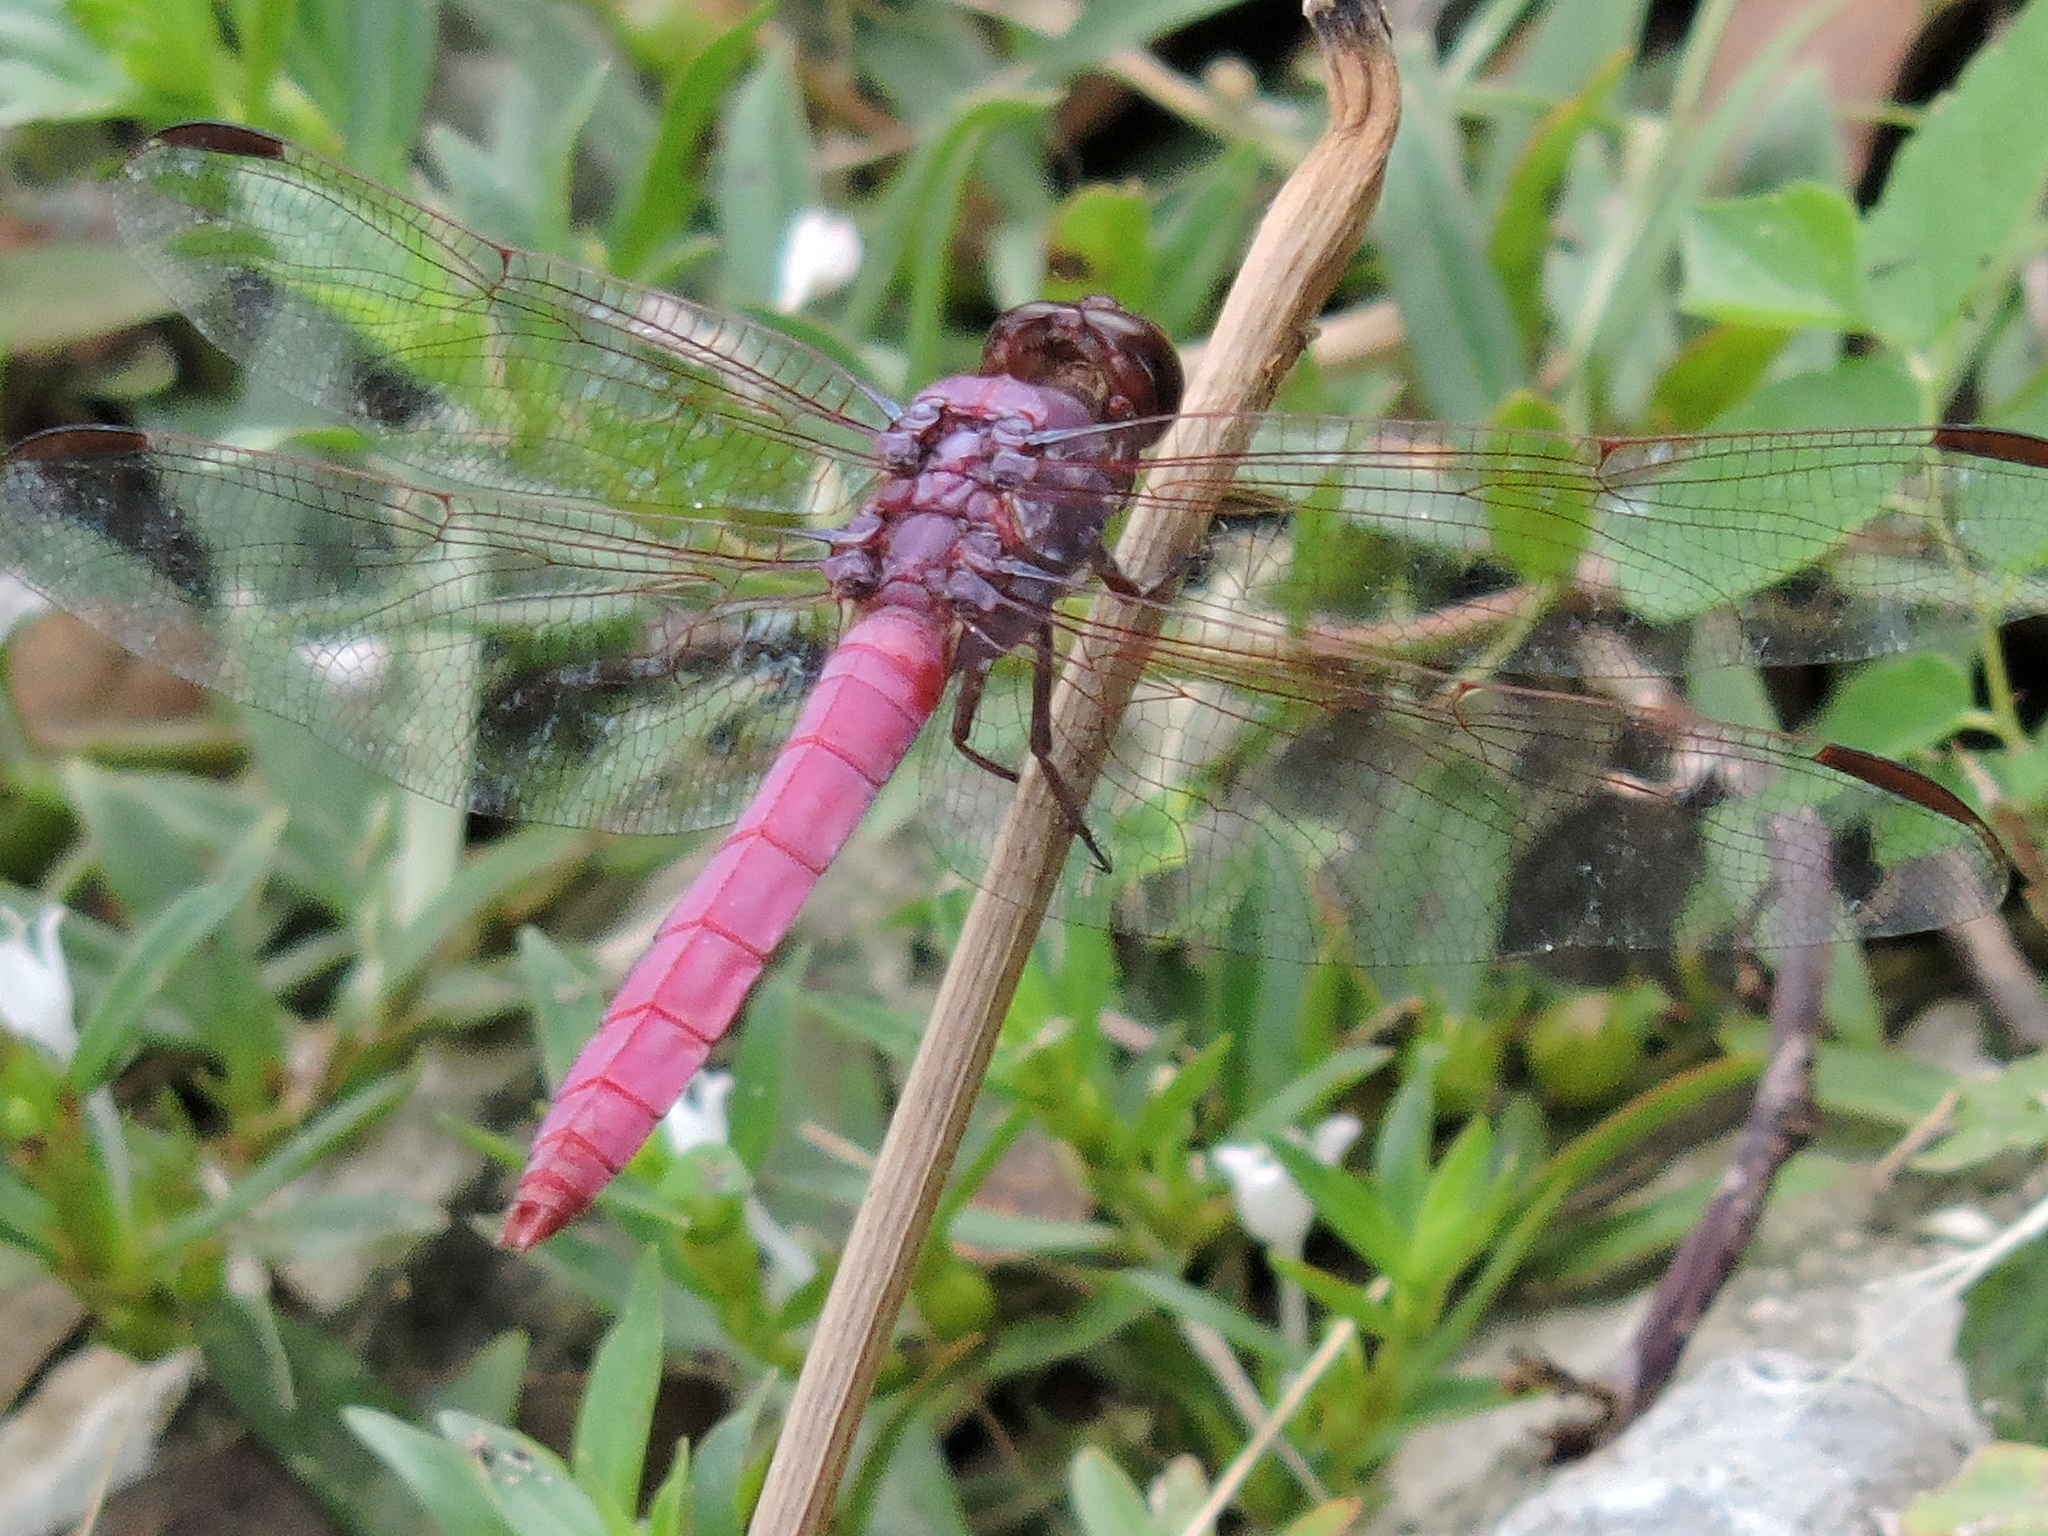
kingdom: Animalia
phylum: Arthropoda
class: Insecta
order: Odonata
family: Libellulidae
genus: Orthemis
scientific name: Orthemis ferruginea
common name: Roseate skimmer
